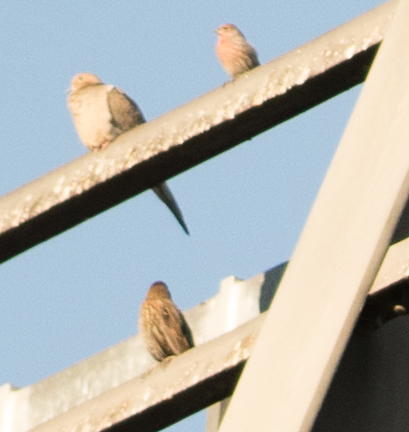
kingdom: Animalia
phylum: Chordata
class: Aves
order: Passeriformes
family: Fringillidae
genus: Haemorhous
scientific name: Haemorhous mexicanus
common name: House finch
